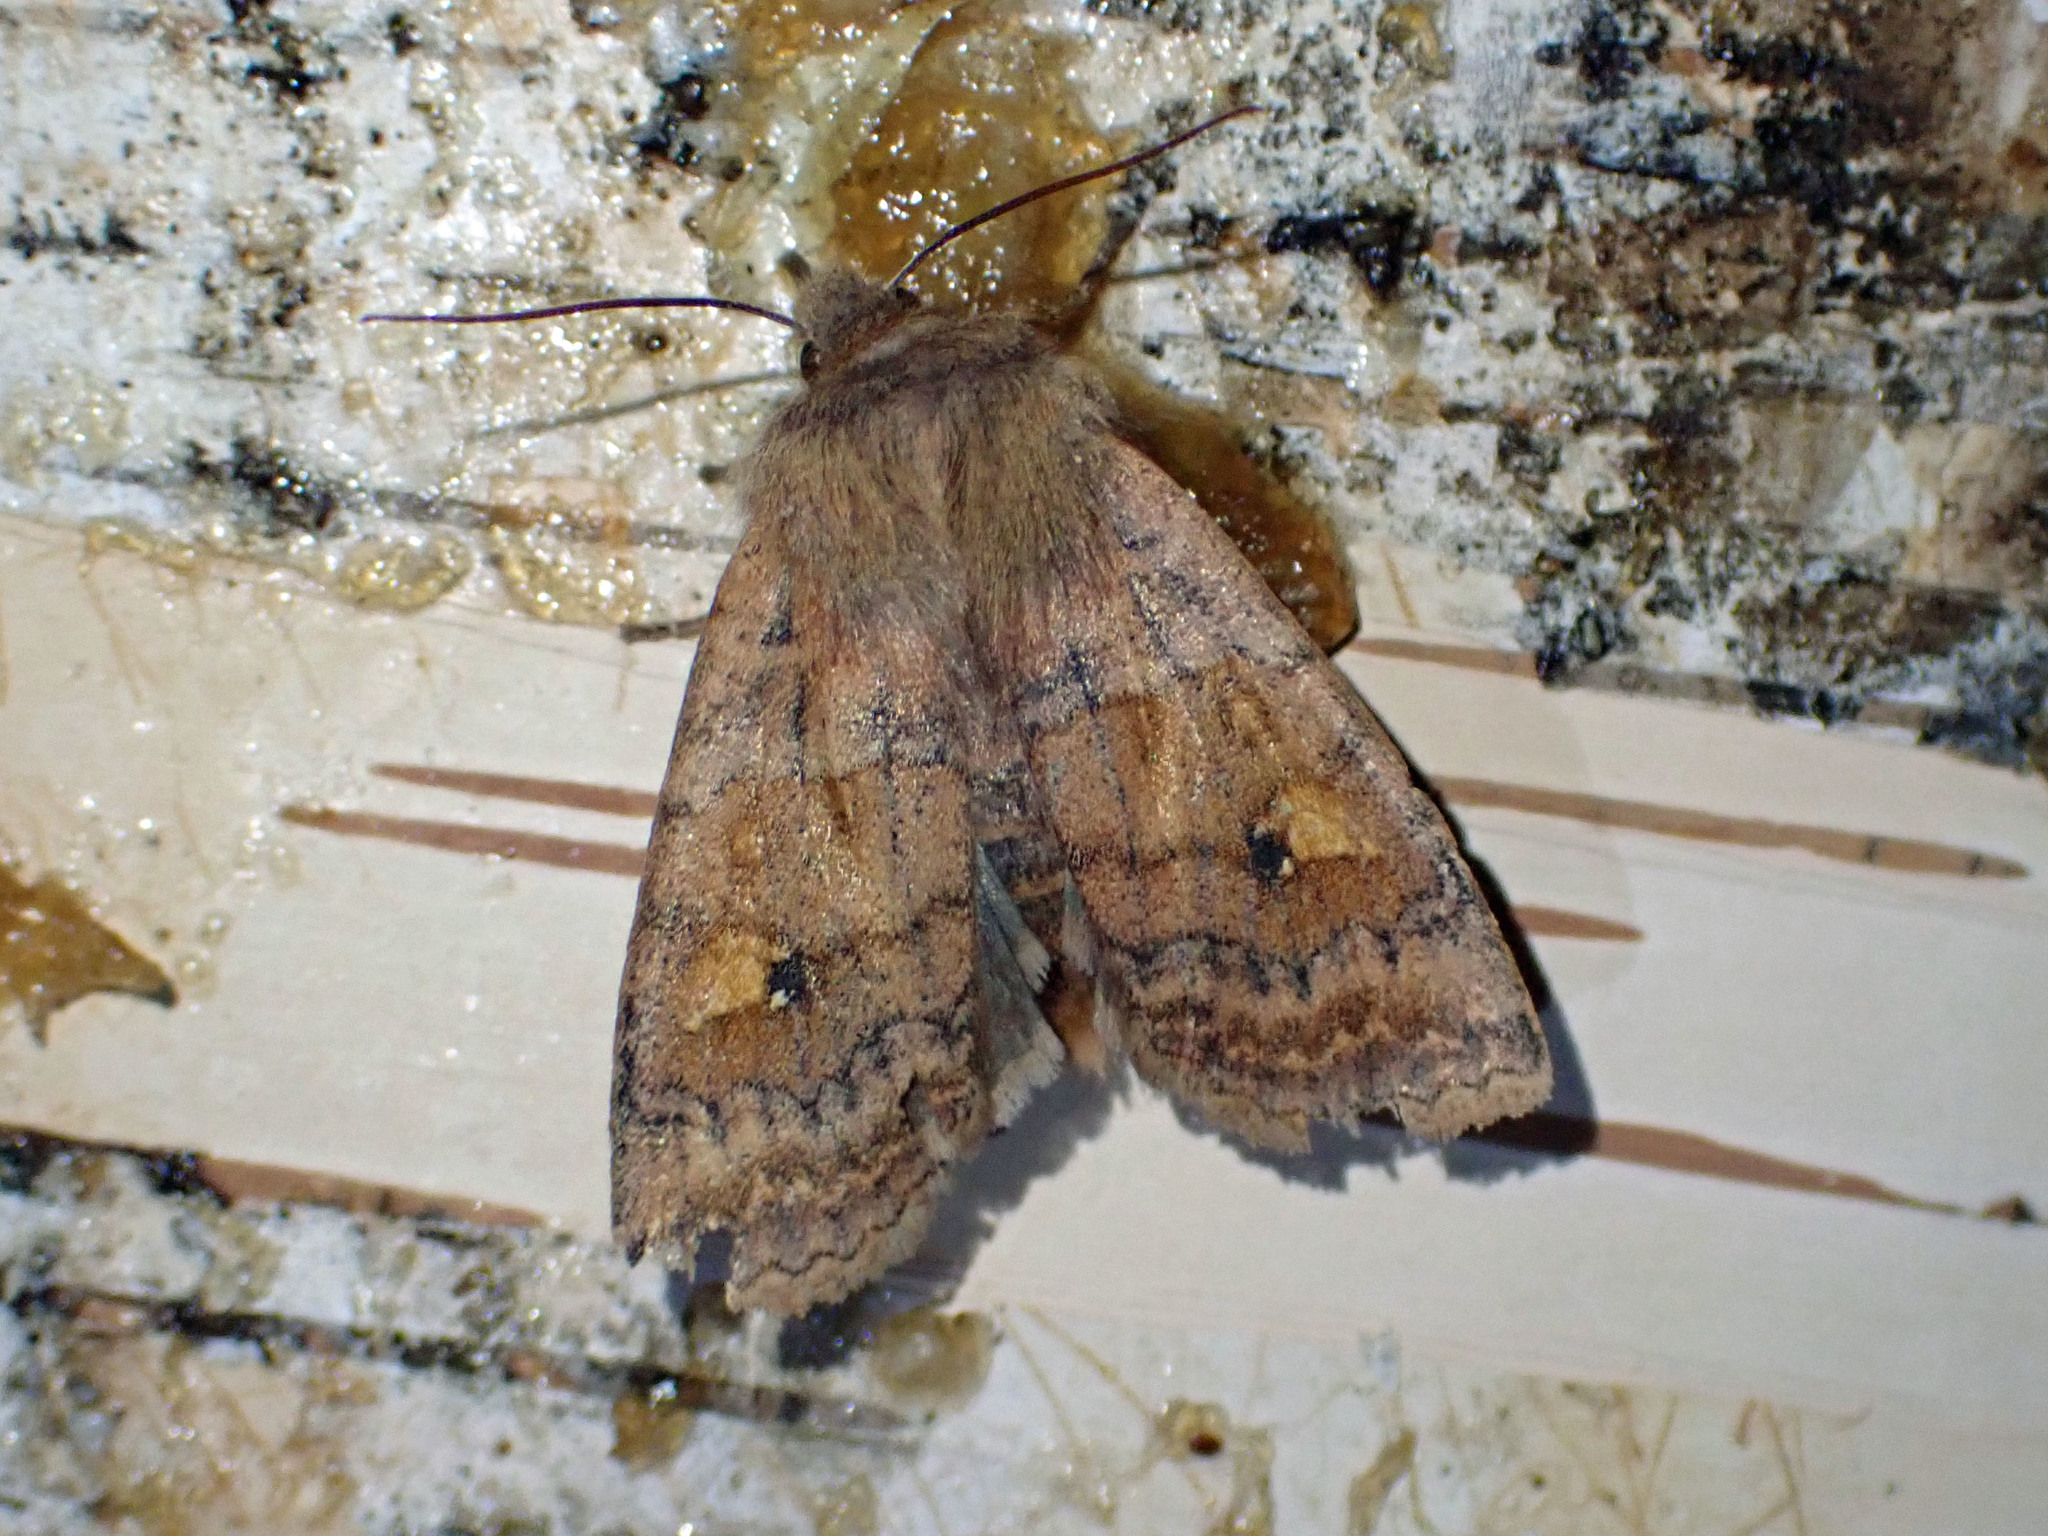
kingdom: Animalia
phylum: Arthropoda
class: Insecta
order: Lepidoptera
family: Noctuidae
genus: Eupsilia
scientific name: Eupsilia tristigmata
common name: Three-spotted sallow
